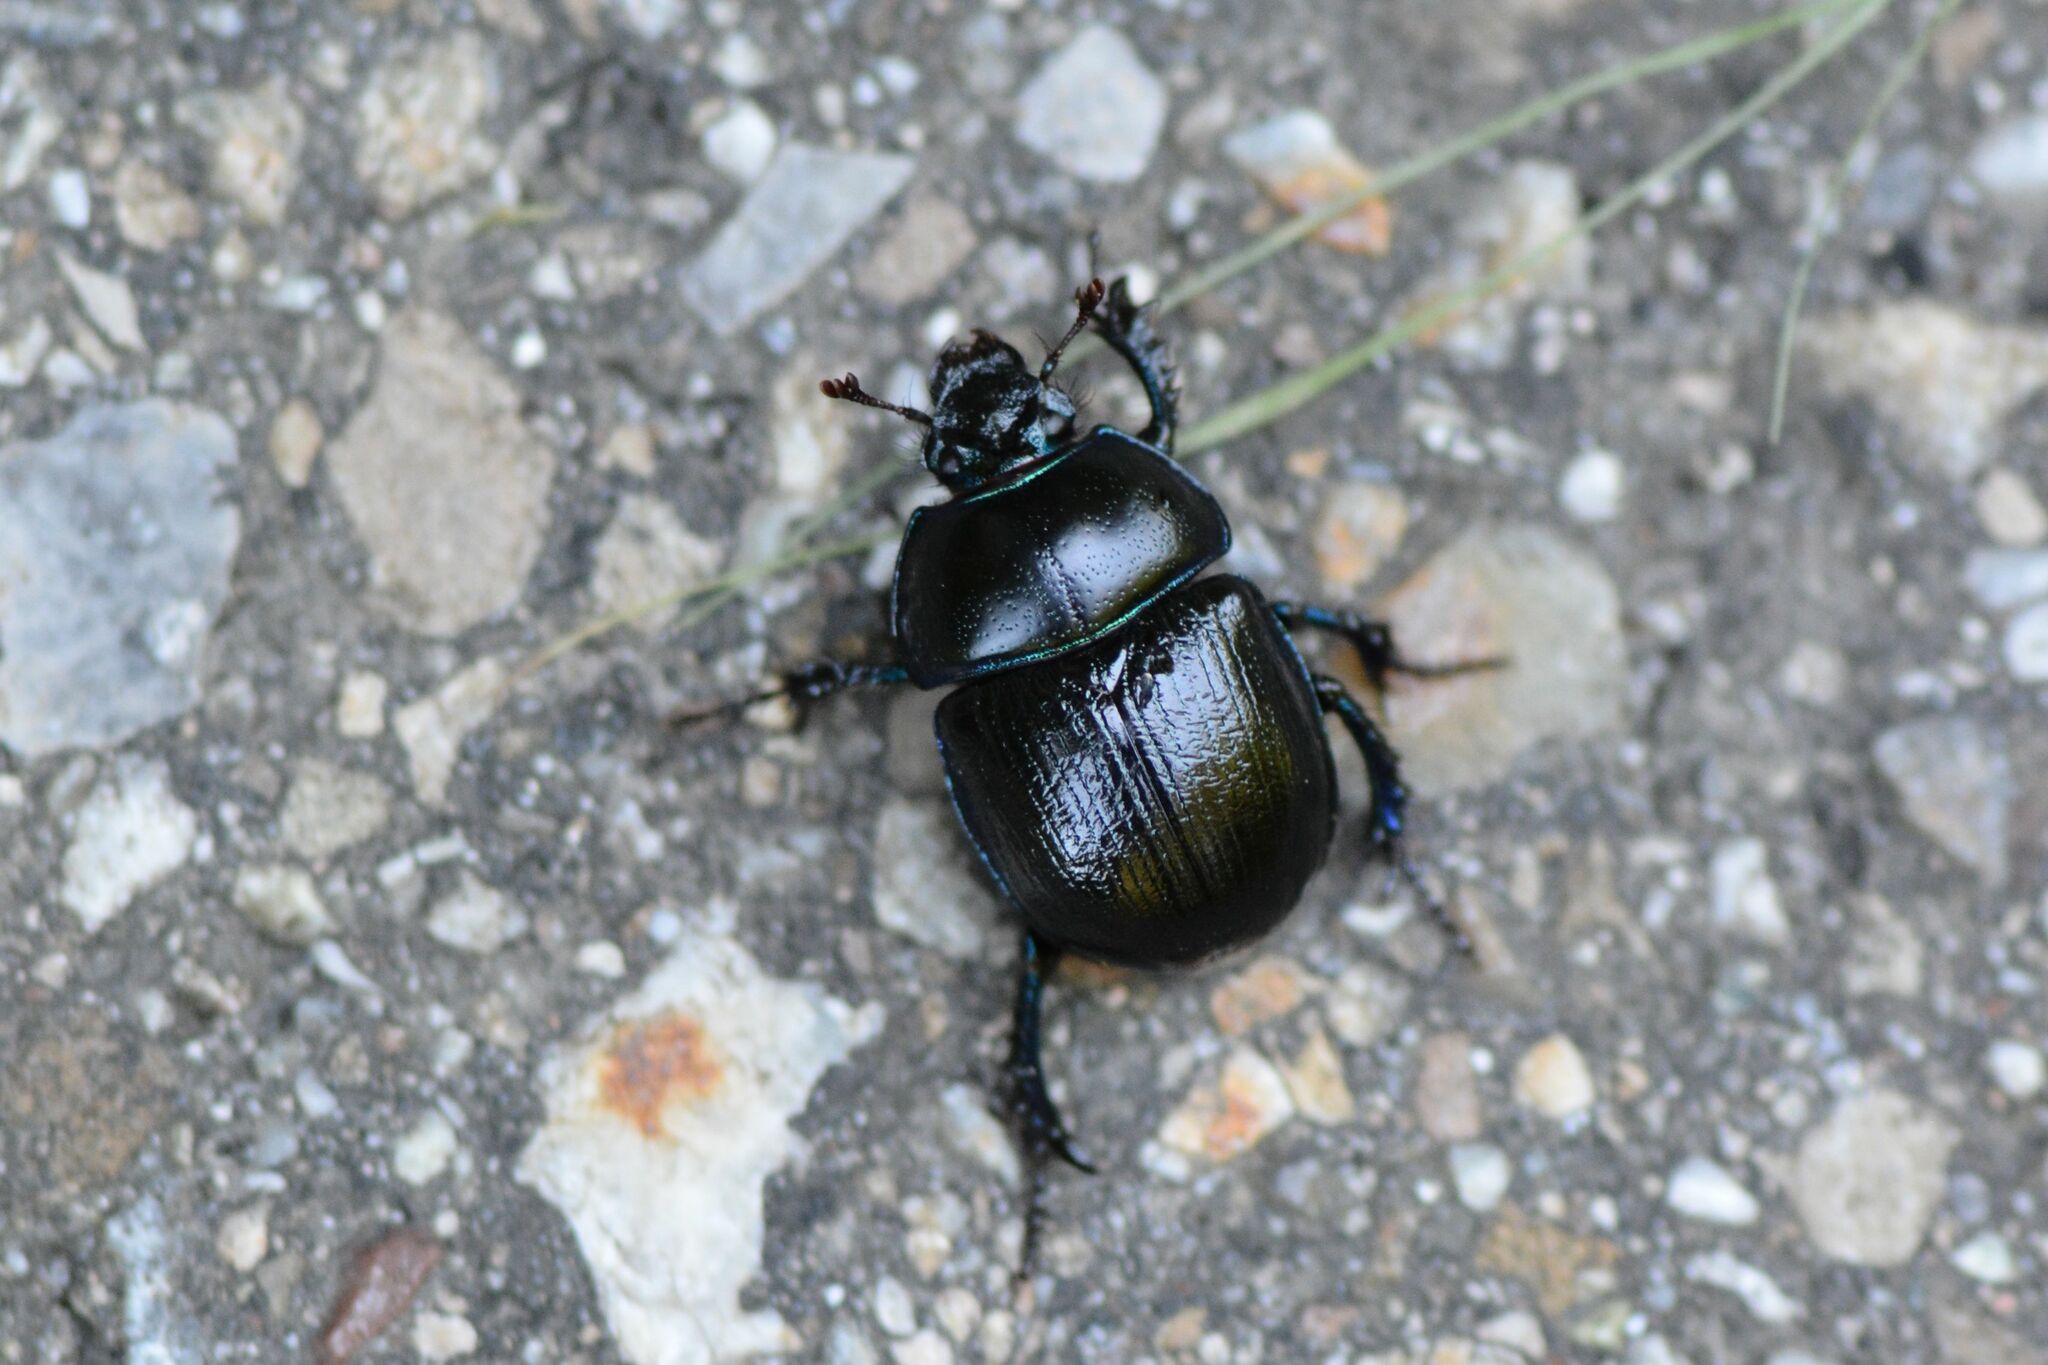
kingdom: Animalia
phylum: Arthropoda
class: Insecta
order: Coleoptera
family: Geotrupidae
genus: Anoplotrupes
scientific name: Anoplotrupes stercorosus
